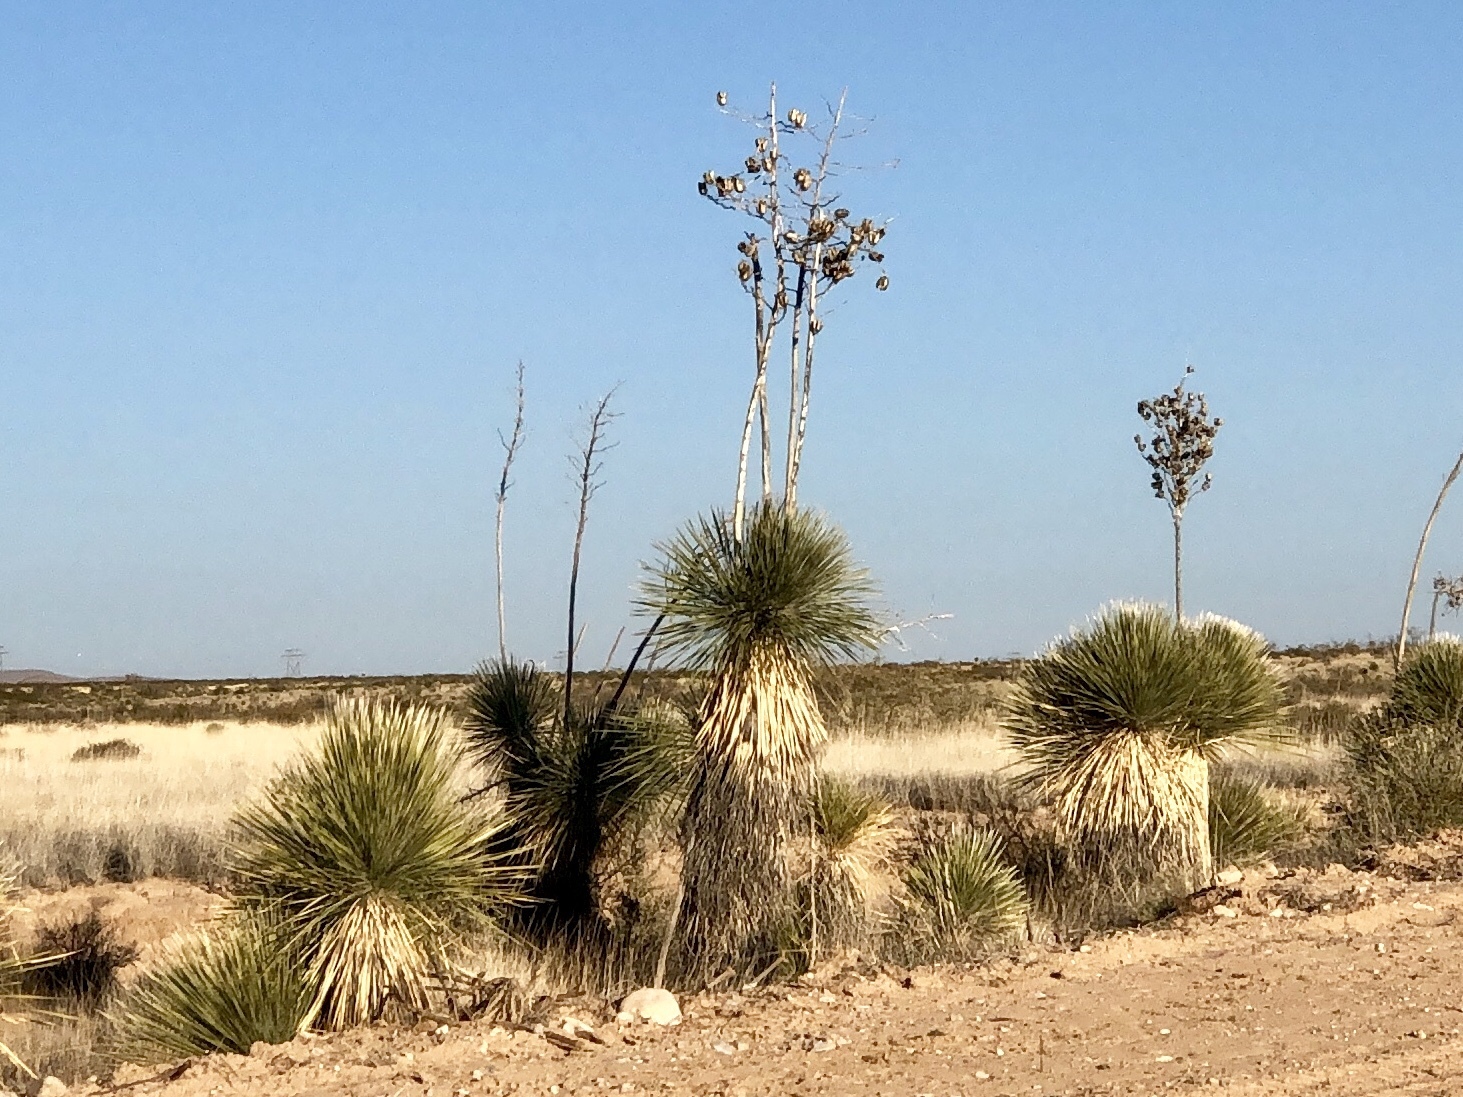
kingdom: Plantae
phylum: Tracheophyta
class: Liliopsida
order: Asparagales
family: Asparagaceae
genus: Yucca
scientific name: Yucca elata
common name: Palmella
